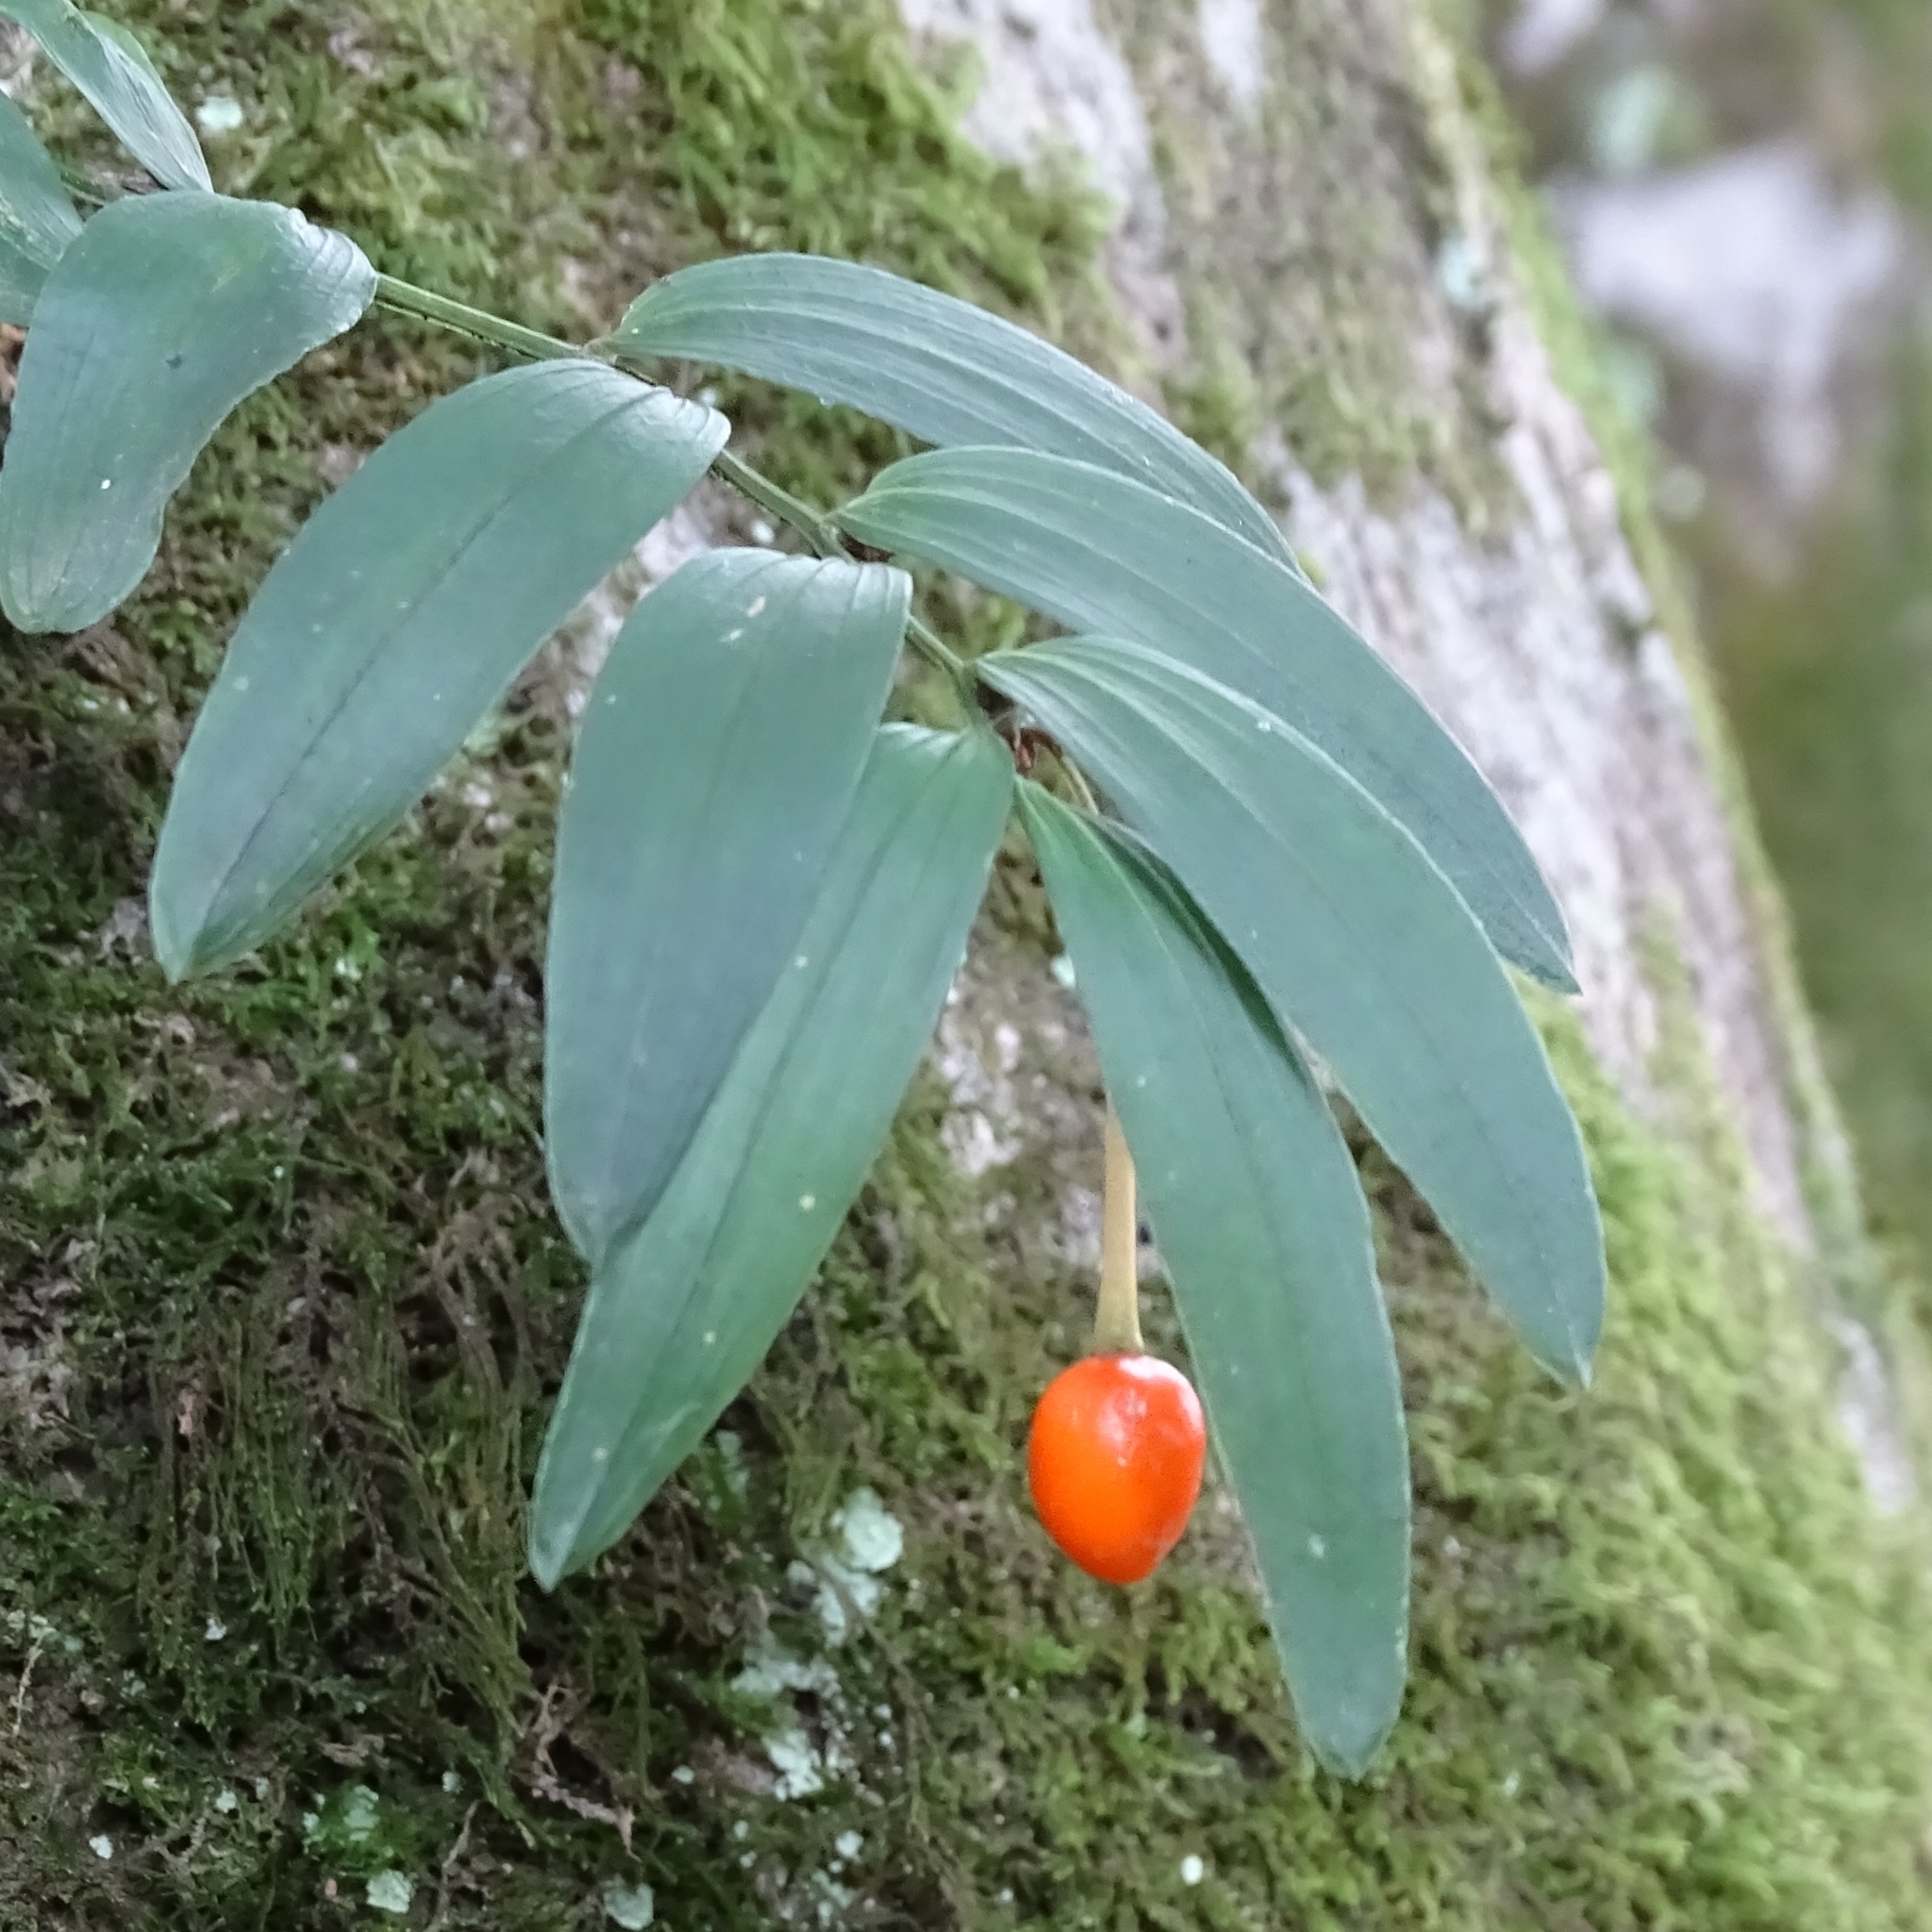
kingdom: Plantae
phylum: Tracheophyta
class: Liliopsida
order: Liliales
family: Alstroemeriaceae
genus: Luzuriaga
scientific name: Luzuriaga radicans
